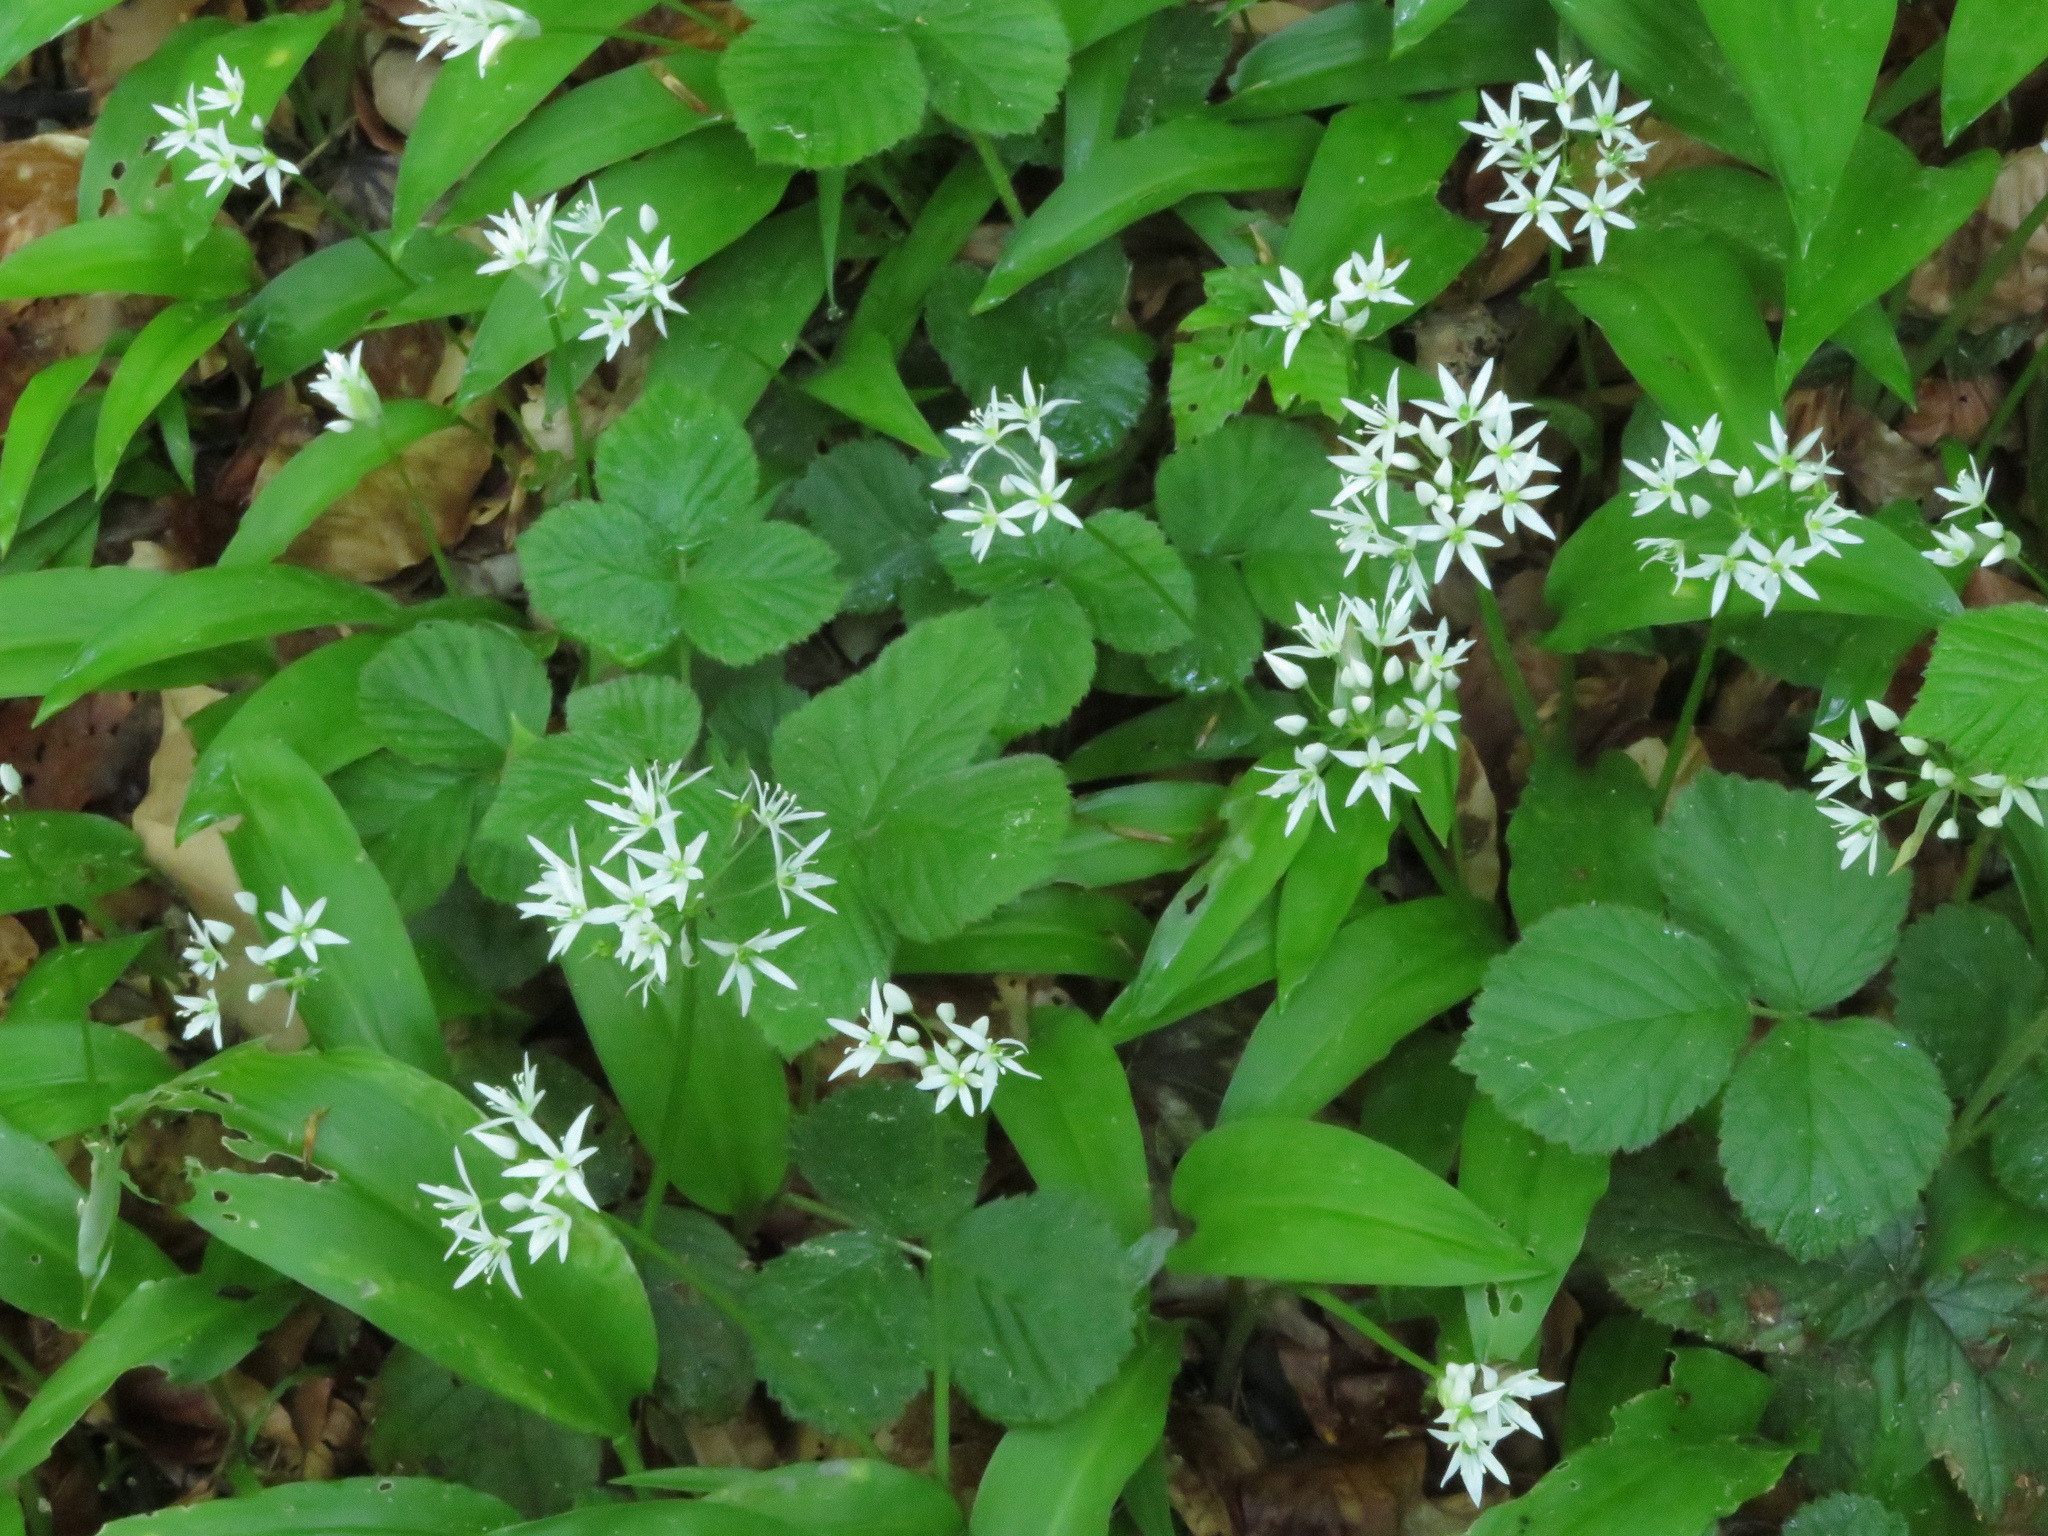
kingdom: Plantae
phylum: Tracheophyta
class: Liliopsida
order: Asparagales
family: Amaryllidaceae
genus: Allium
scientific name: Allium ursinum
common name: Ramsons
